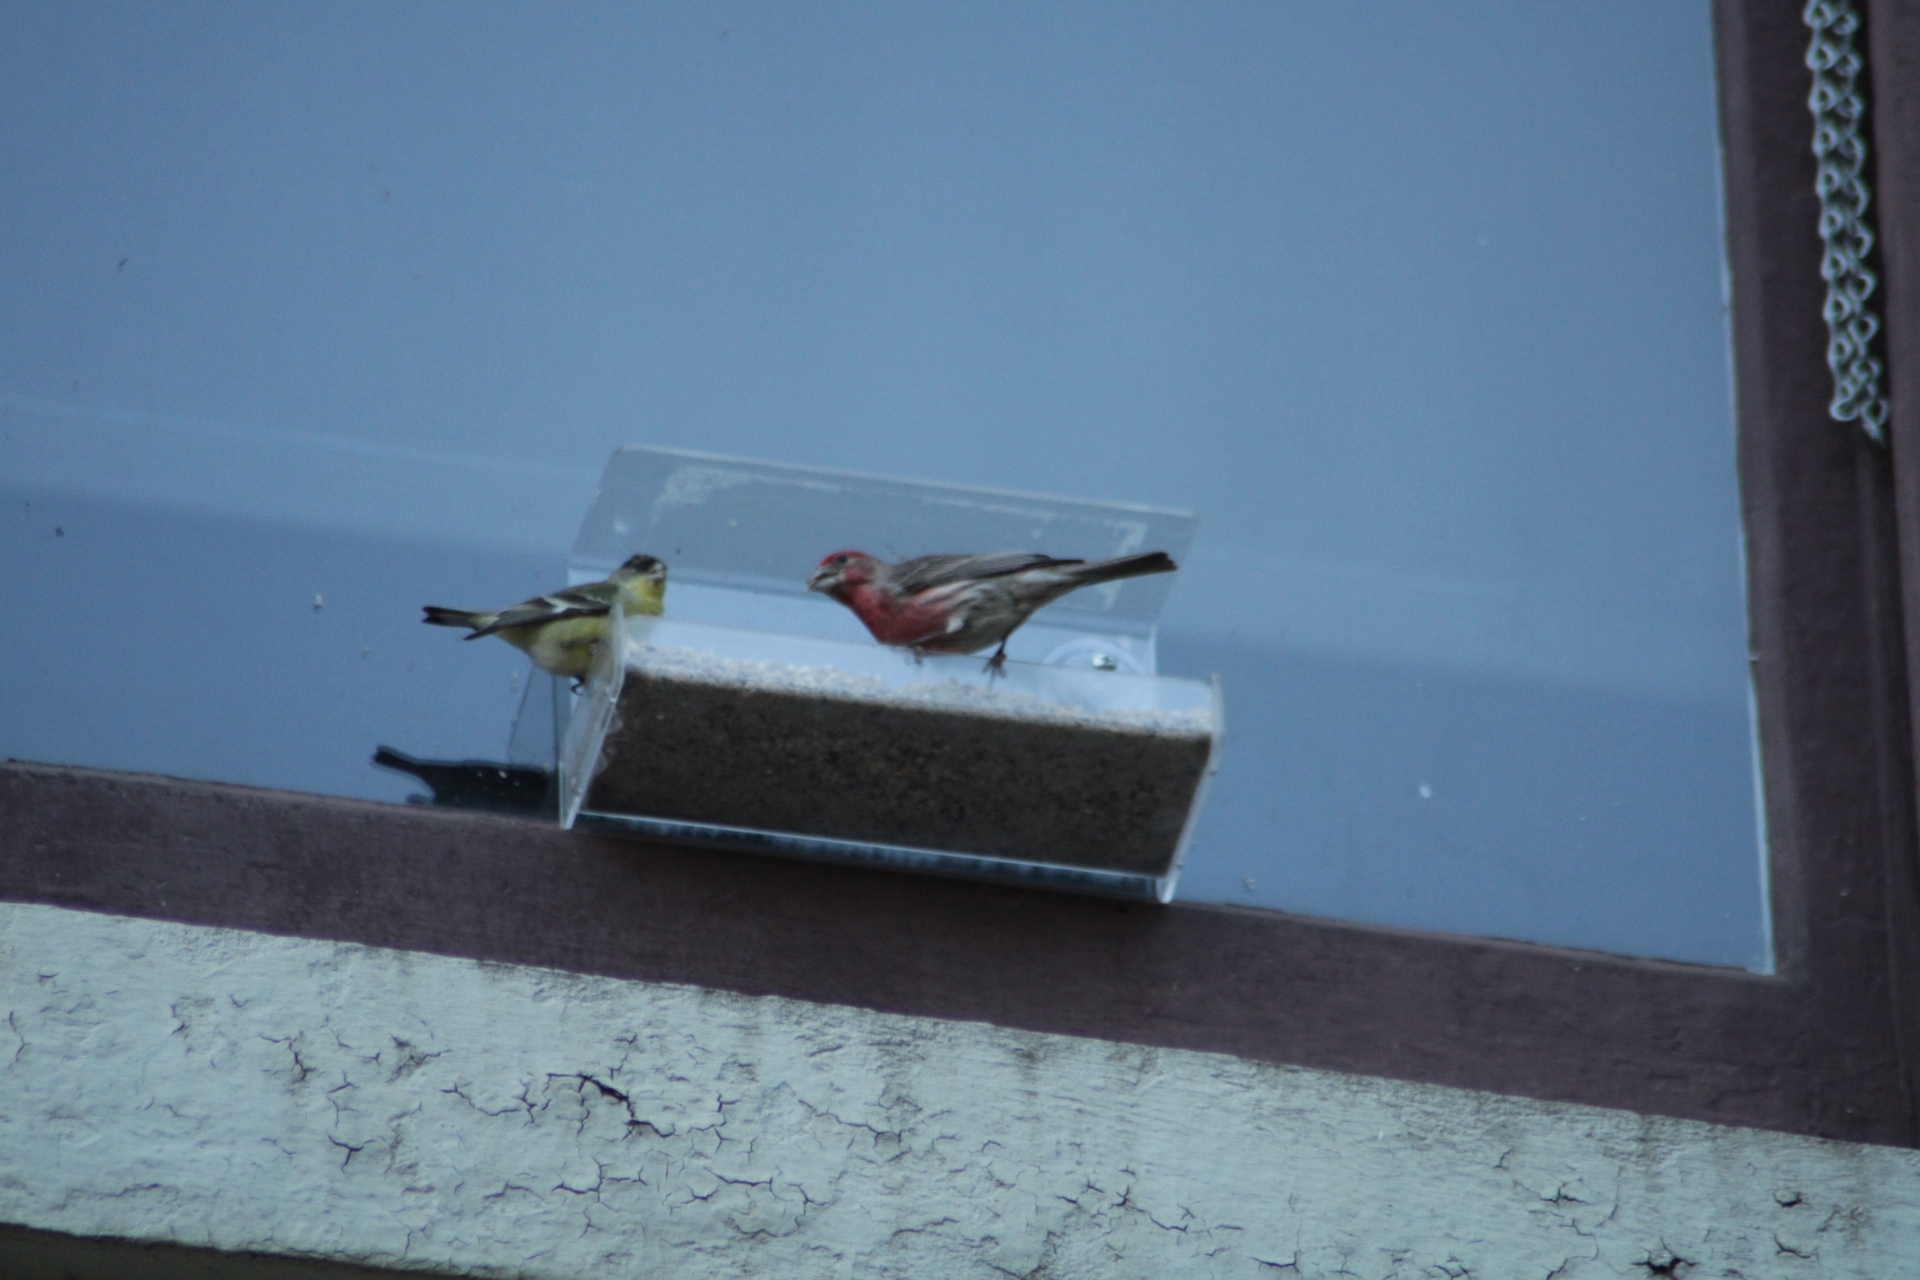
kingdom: Animalia
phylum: Chordata
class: Aves
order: Passeriformes
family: Fringillidae
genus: Haemorhous
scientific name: Haemorhous mexicanus
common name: House finch
